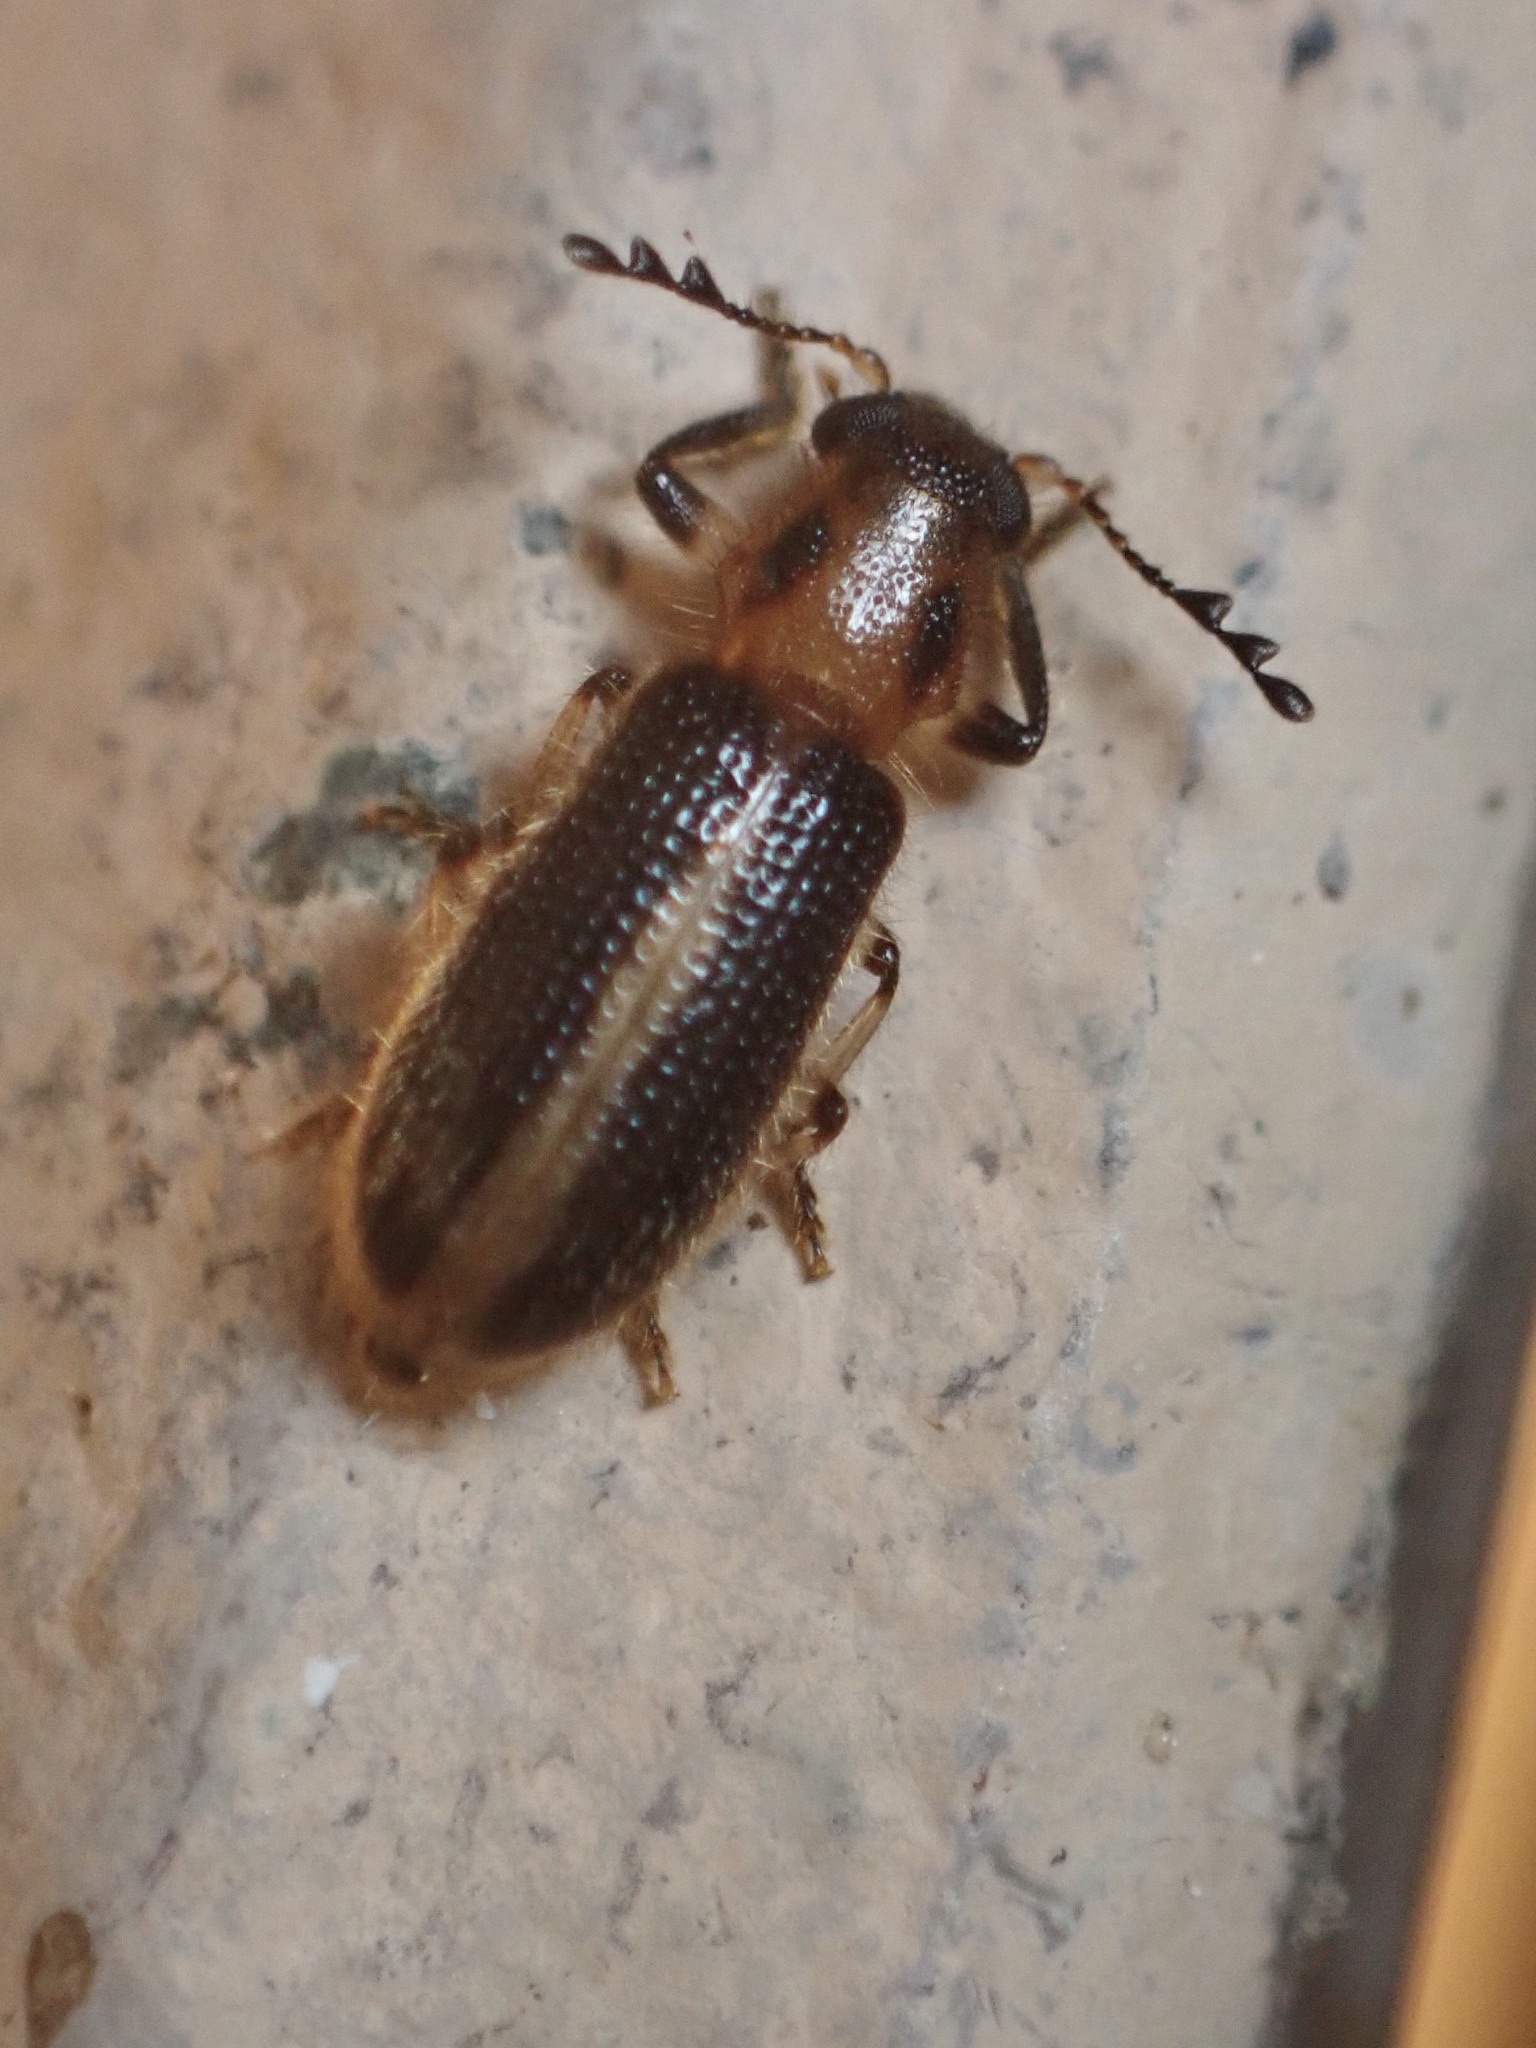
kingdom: Animalia
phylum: Arthropoda
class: Insecta
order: Coleoptera
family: Cleridae
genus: Cregya
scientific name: Cregya oculata
